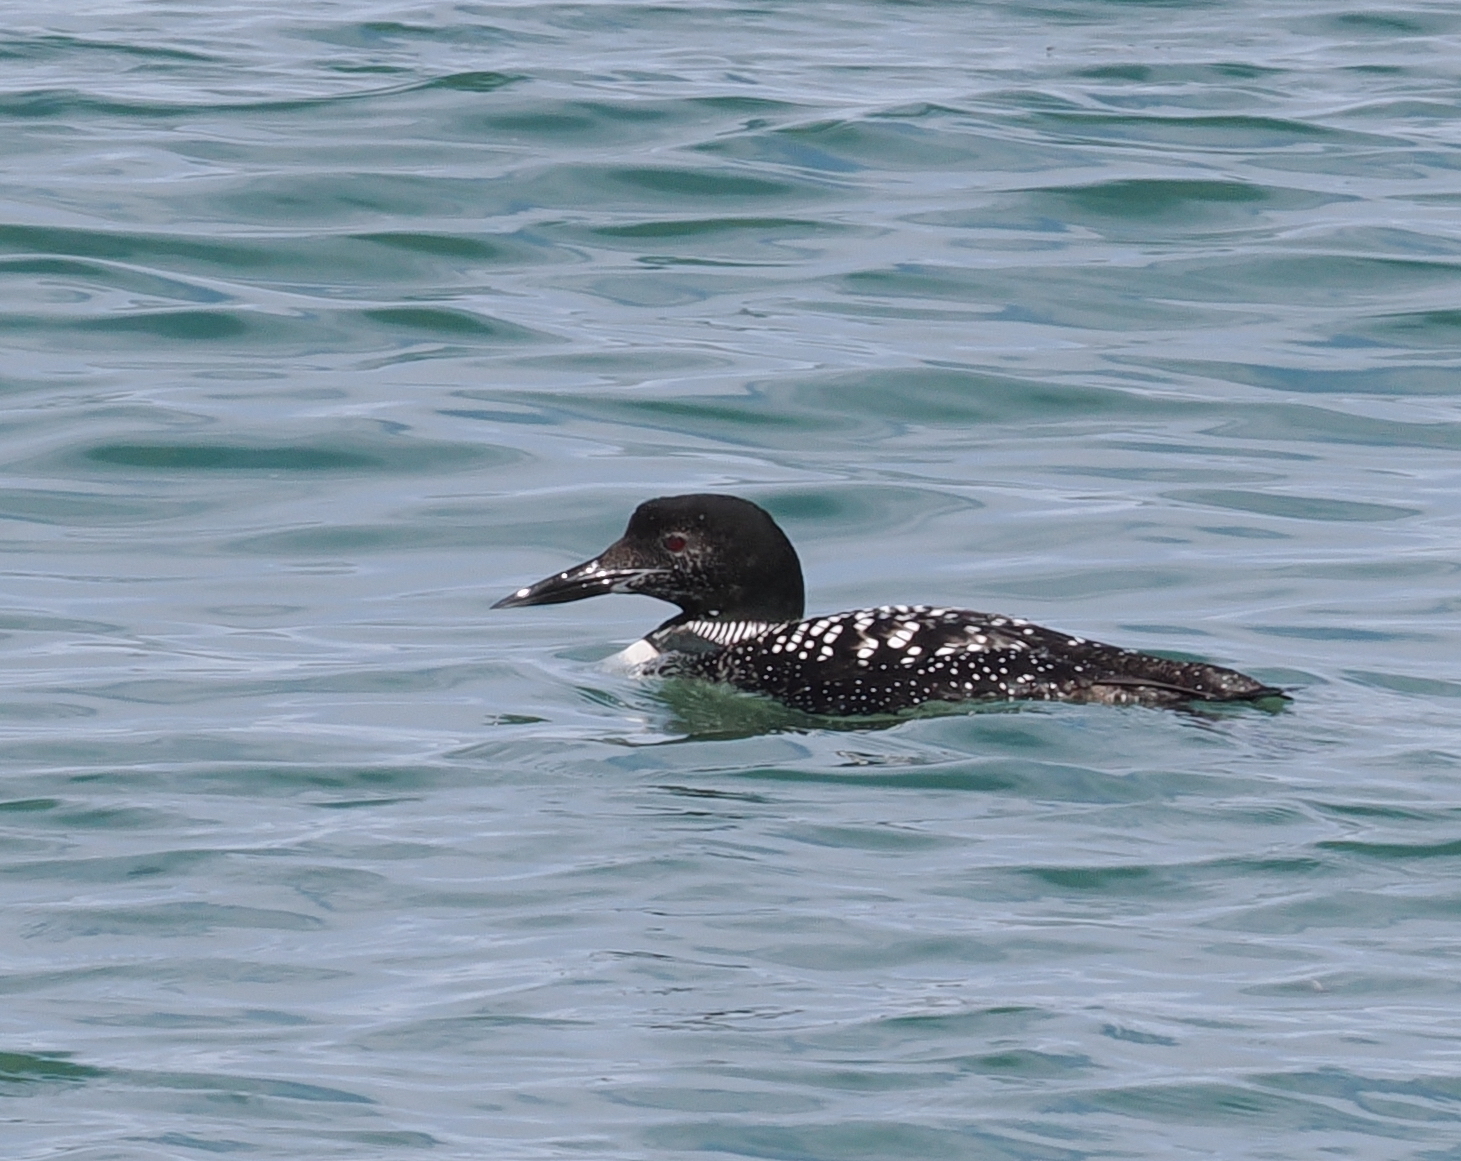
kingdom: Animalia
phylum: Chordata
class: Aves
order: Gaviiformes
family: Gaviidae
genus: Gavia
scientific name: Gavia immer
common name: Common loon
